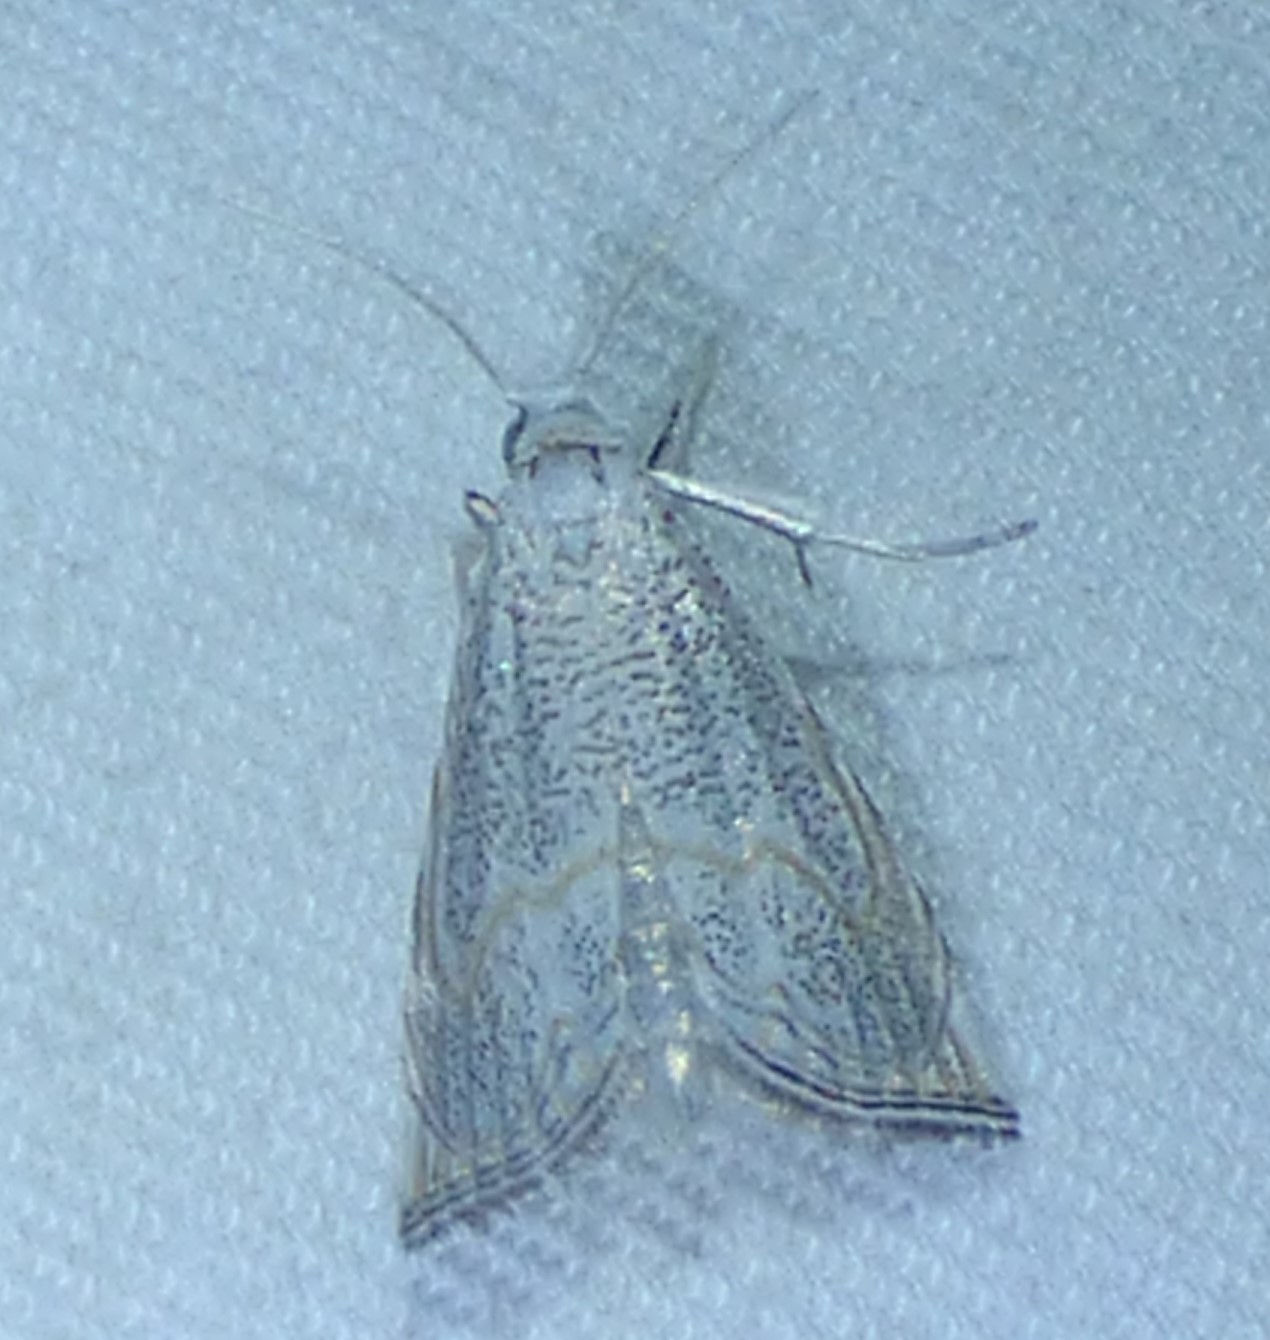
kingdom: Animalia
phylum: Arthropoda
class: Insecta
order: Lepidoptera
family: Crambidae
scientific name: Crambidae
